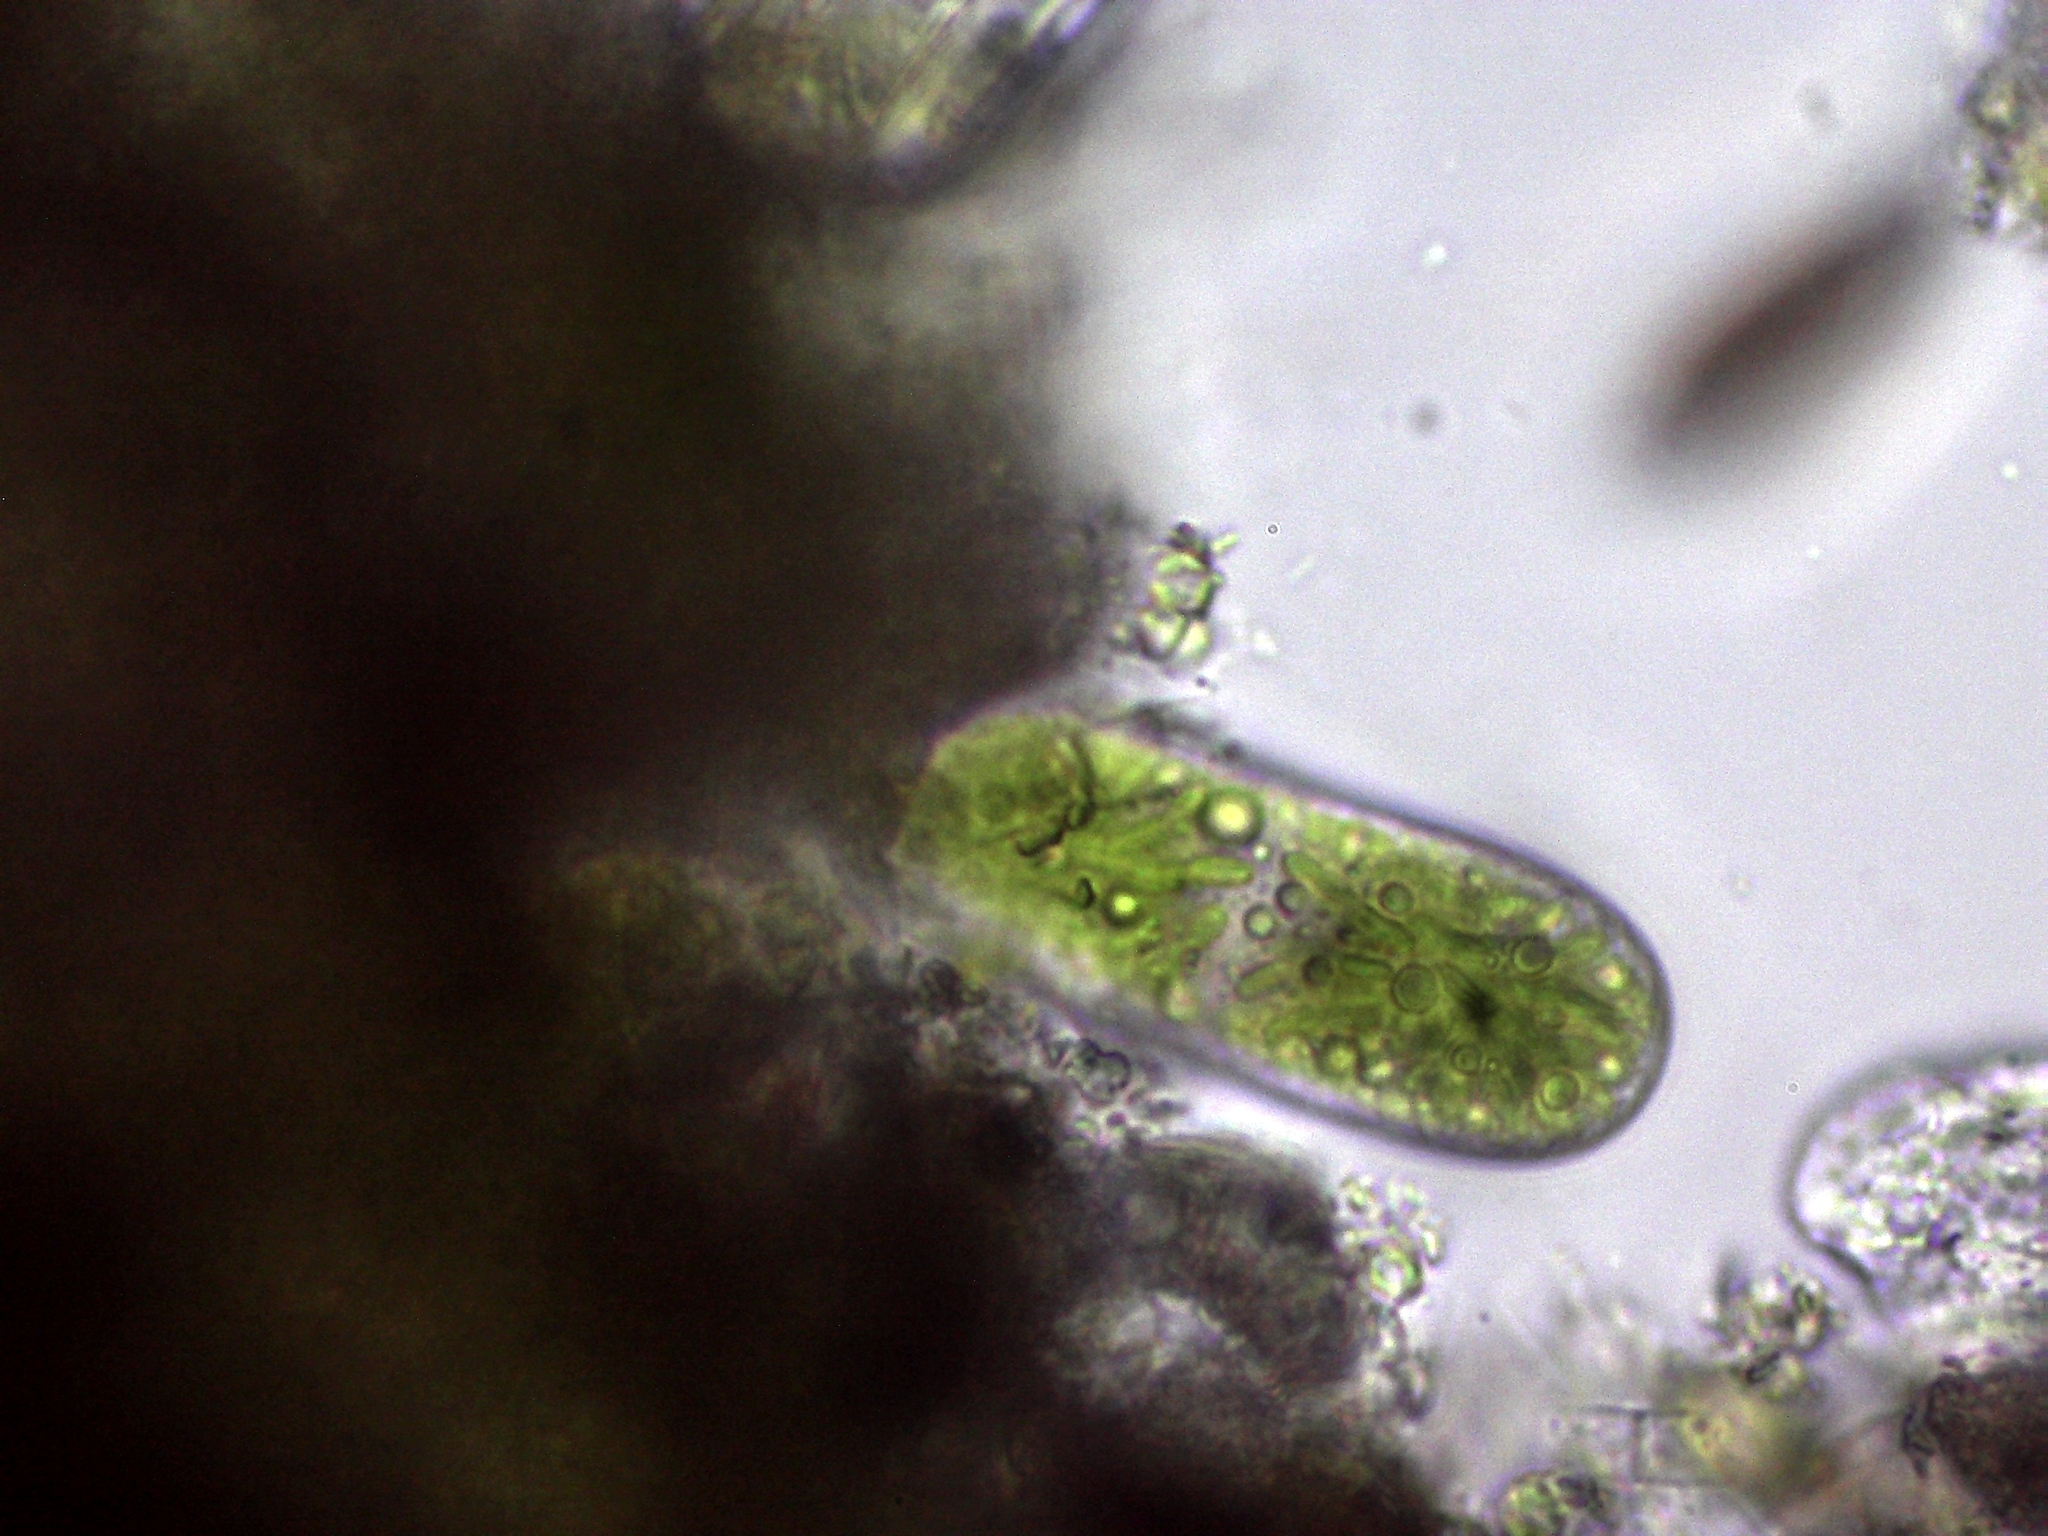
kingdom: Plantae
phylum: Charophyta
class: Zygnematophyceae
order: Zygnematales
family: Mesotaeniaceae
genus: Cylindrocystis
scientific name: Cylindrocystis brebissonii
